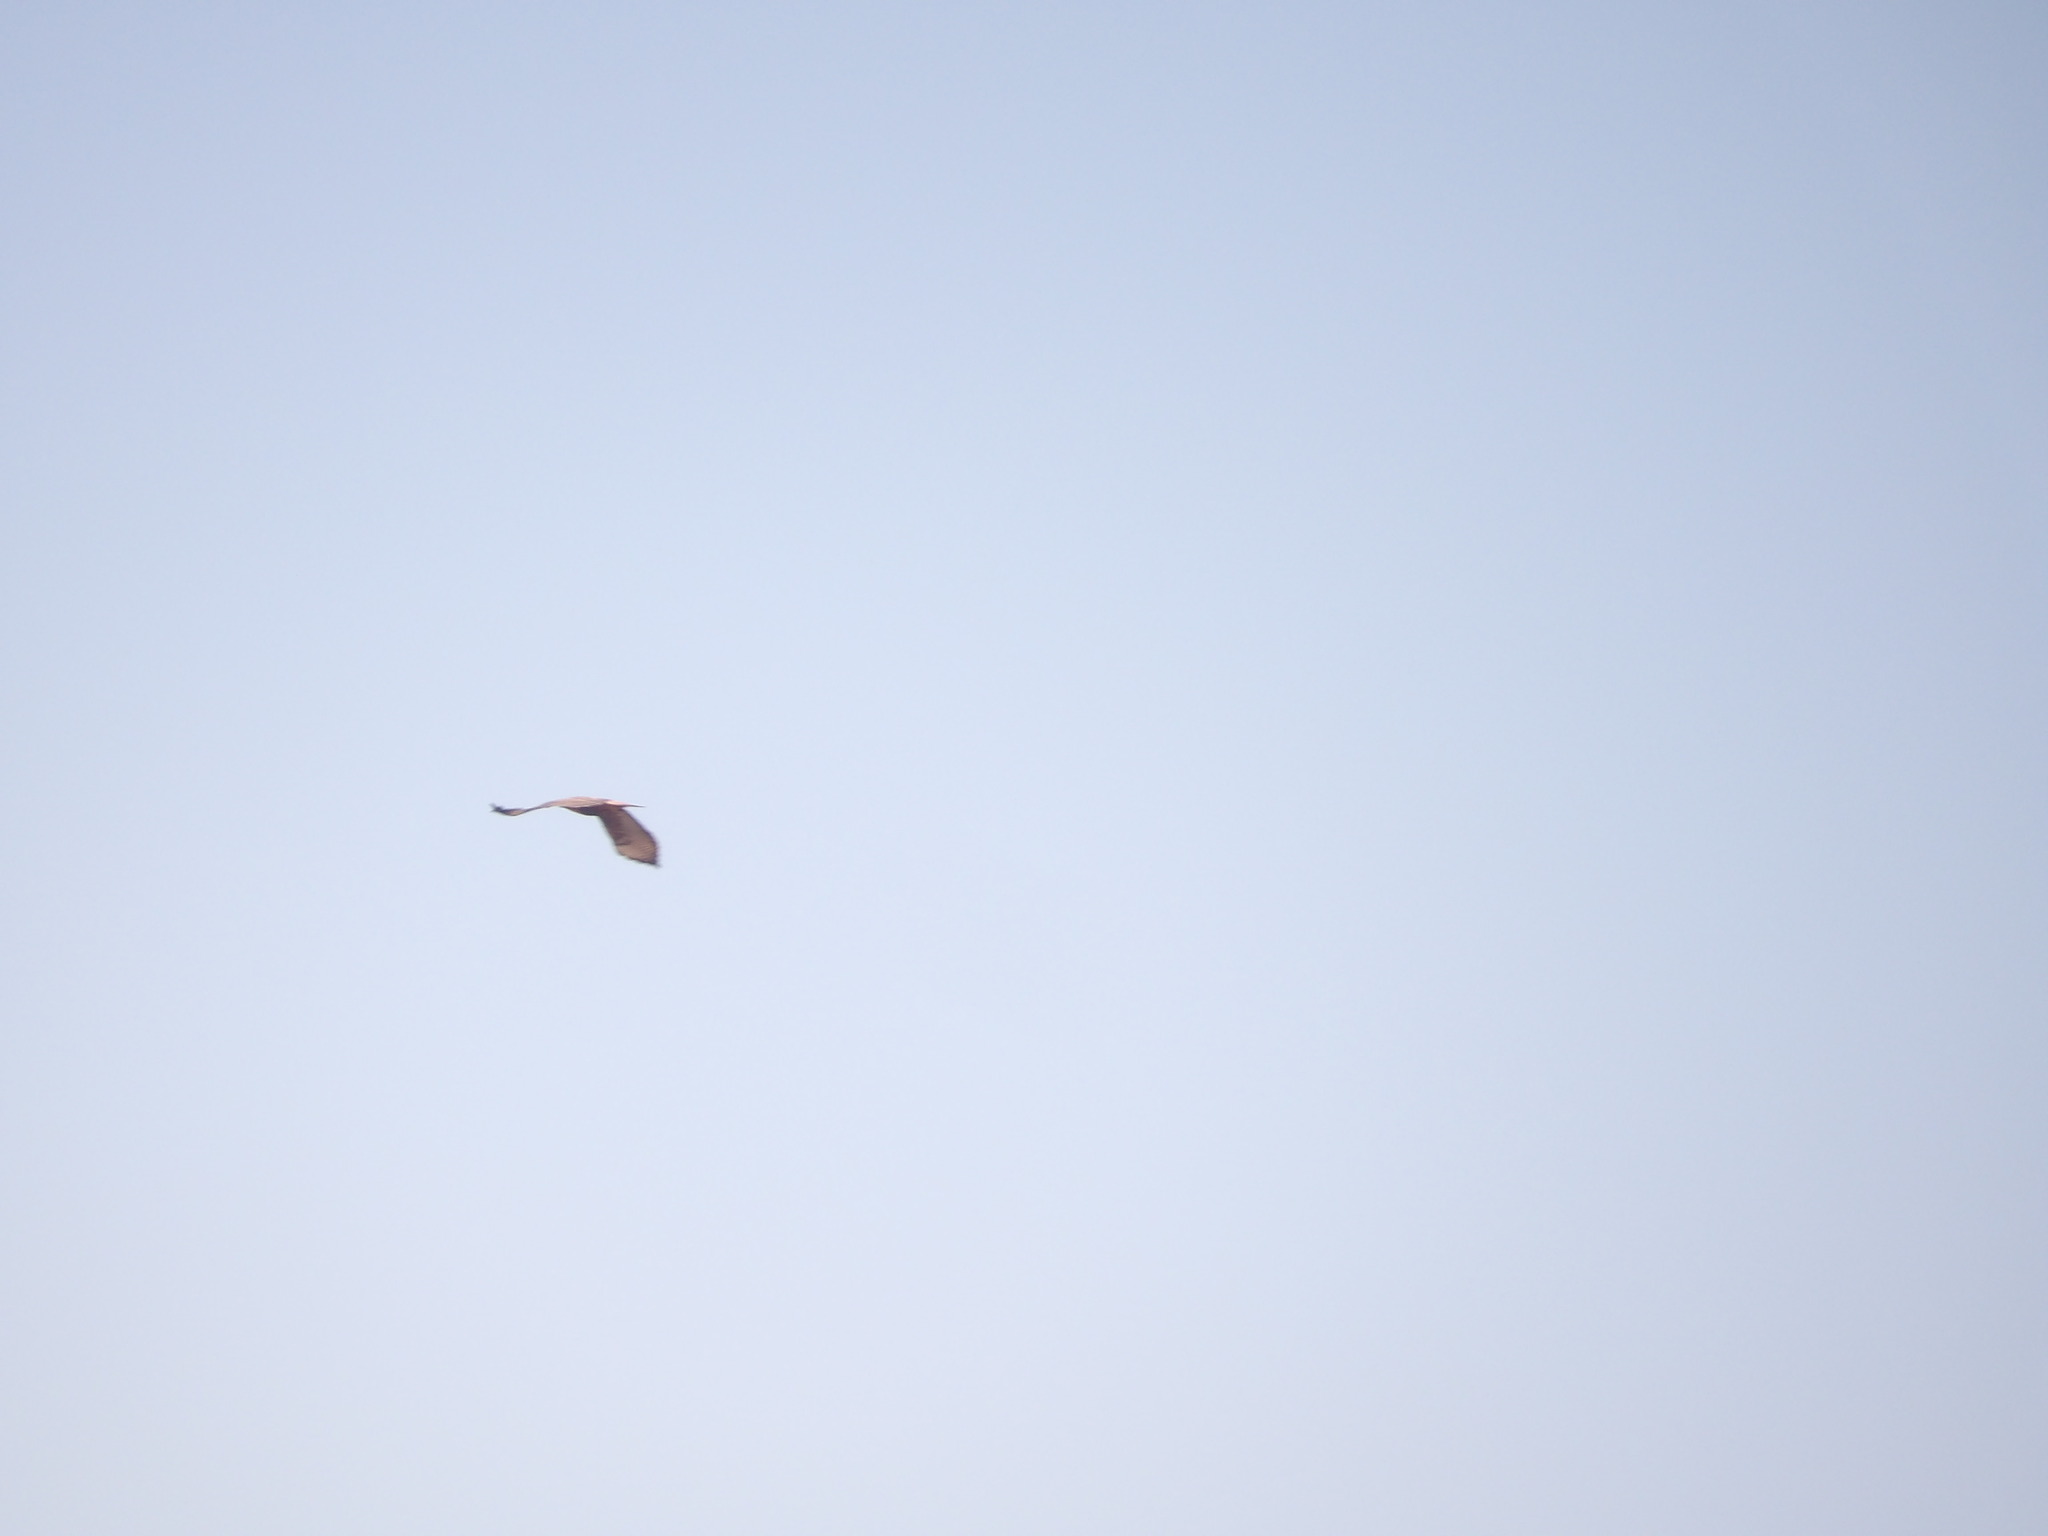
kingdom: Animalia
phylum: Chordata
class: Aves
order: Accipitriformes
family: Accipitridae
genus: Buteo
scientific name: Buteo jamaicensis
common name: Red-tailed hawk
